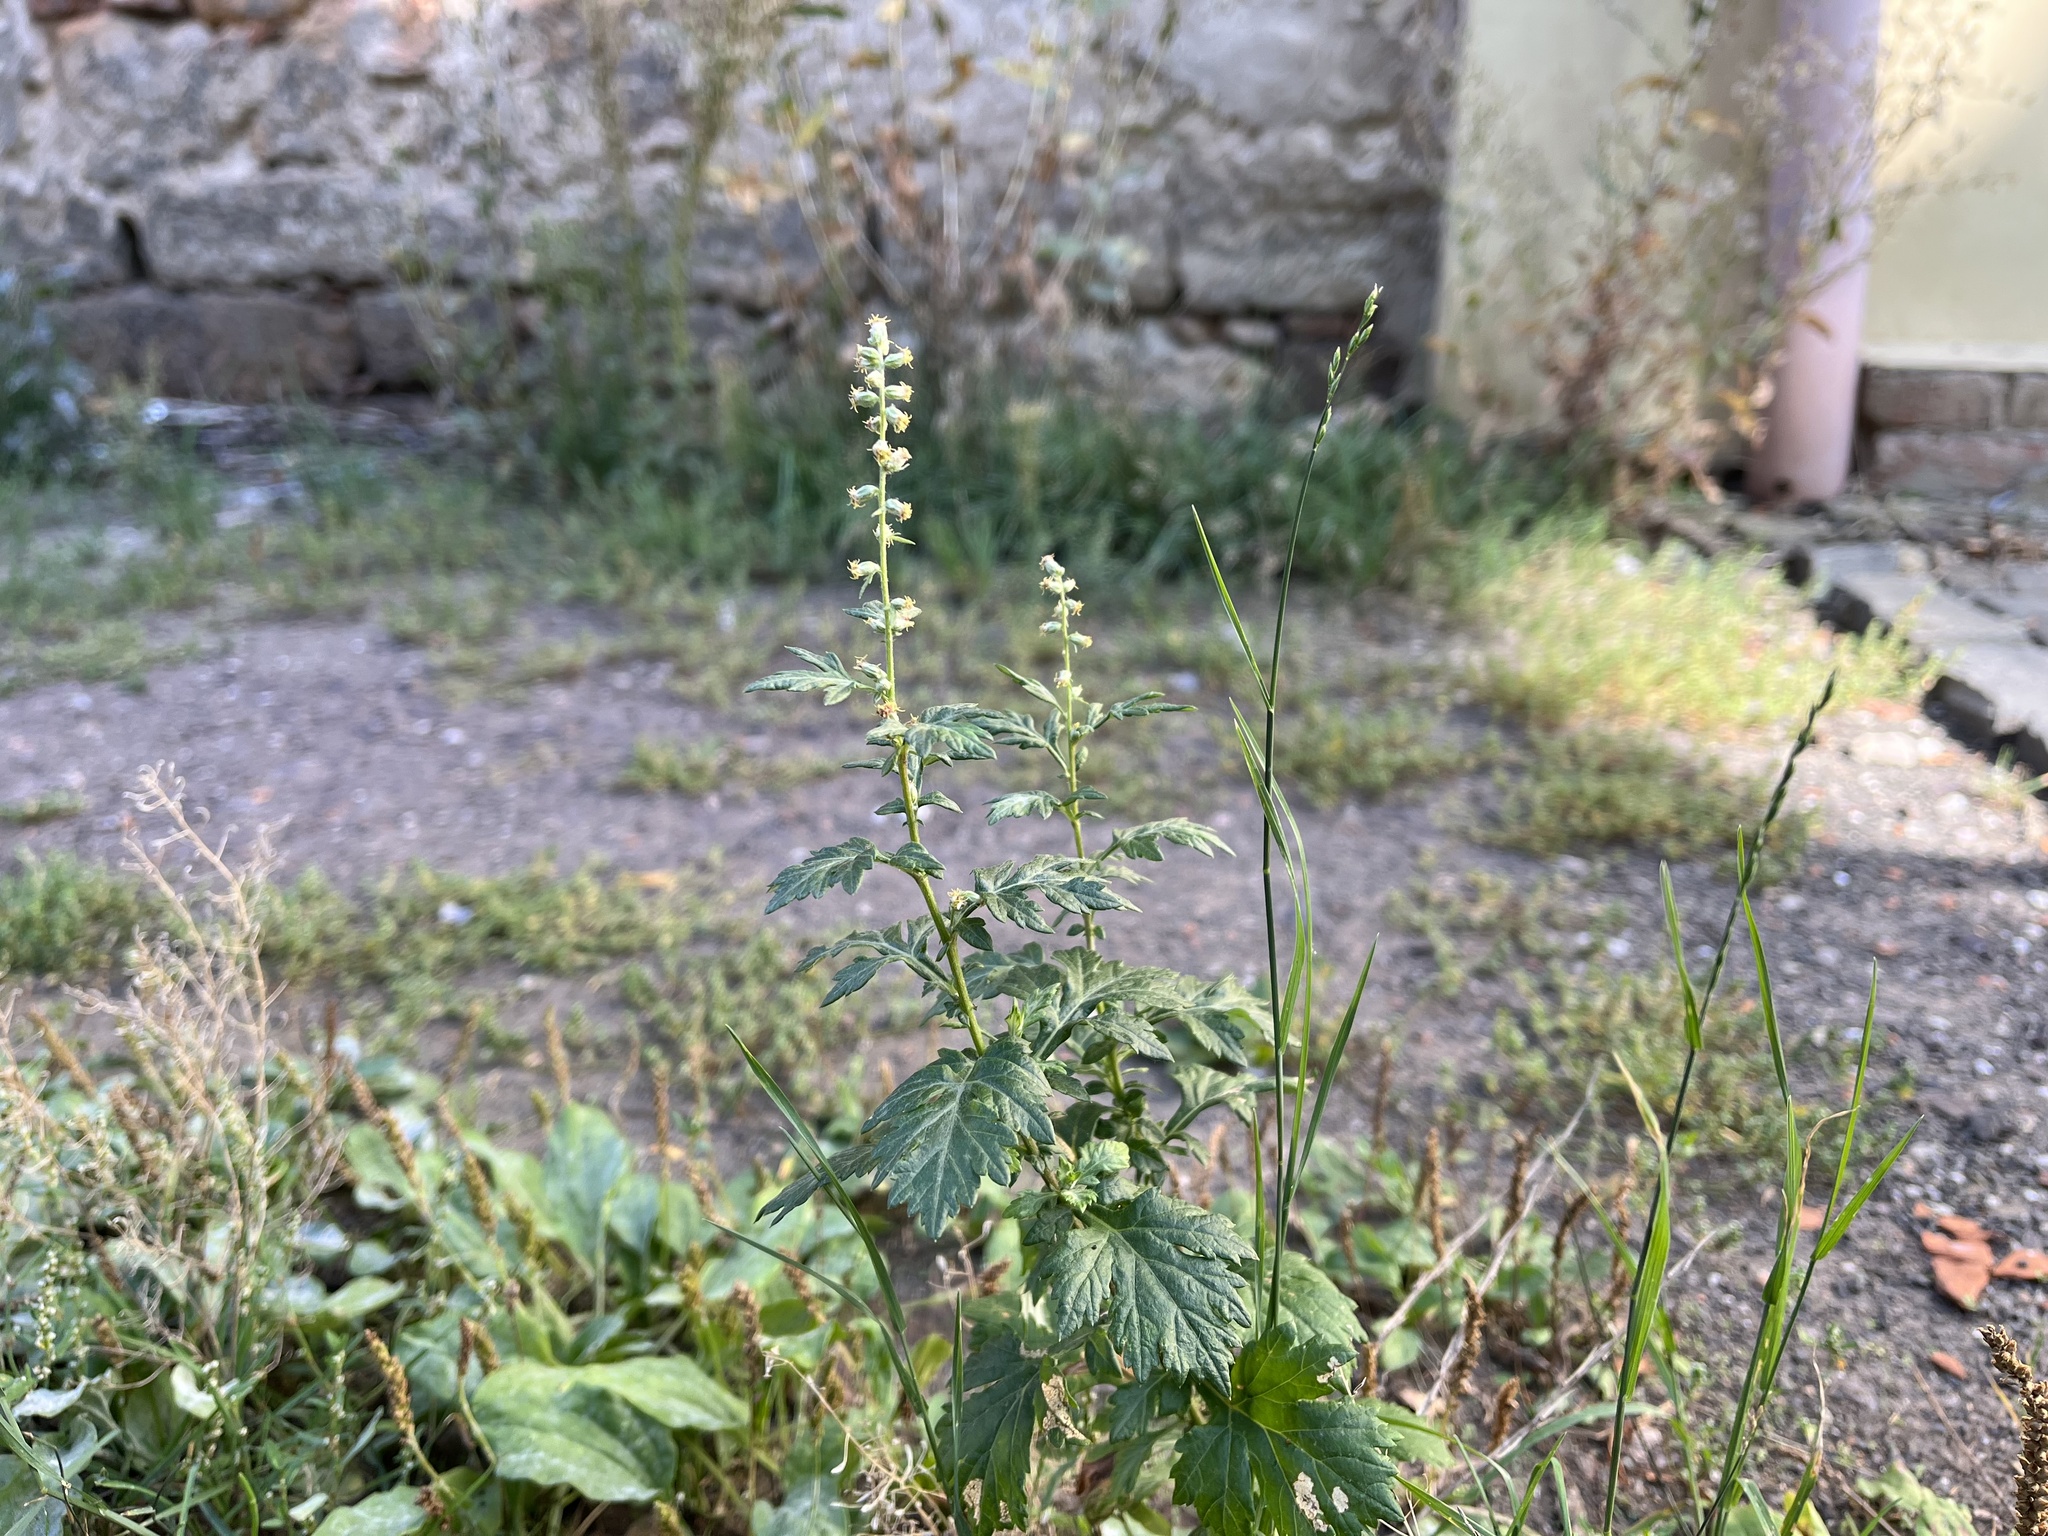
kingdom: Plantae
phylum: Tracheophyta
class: Magnoliopsida
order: Asterales
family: Asteraceae
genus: Artemisia
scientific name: Artemisia vulgaris
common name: Mugwort
